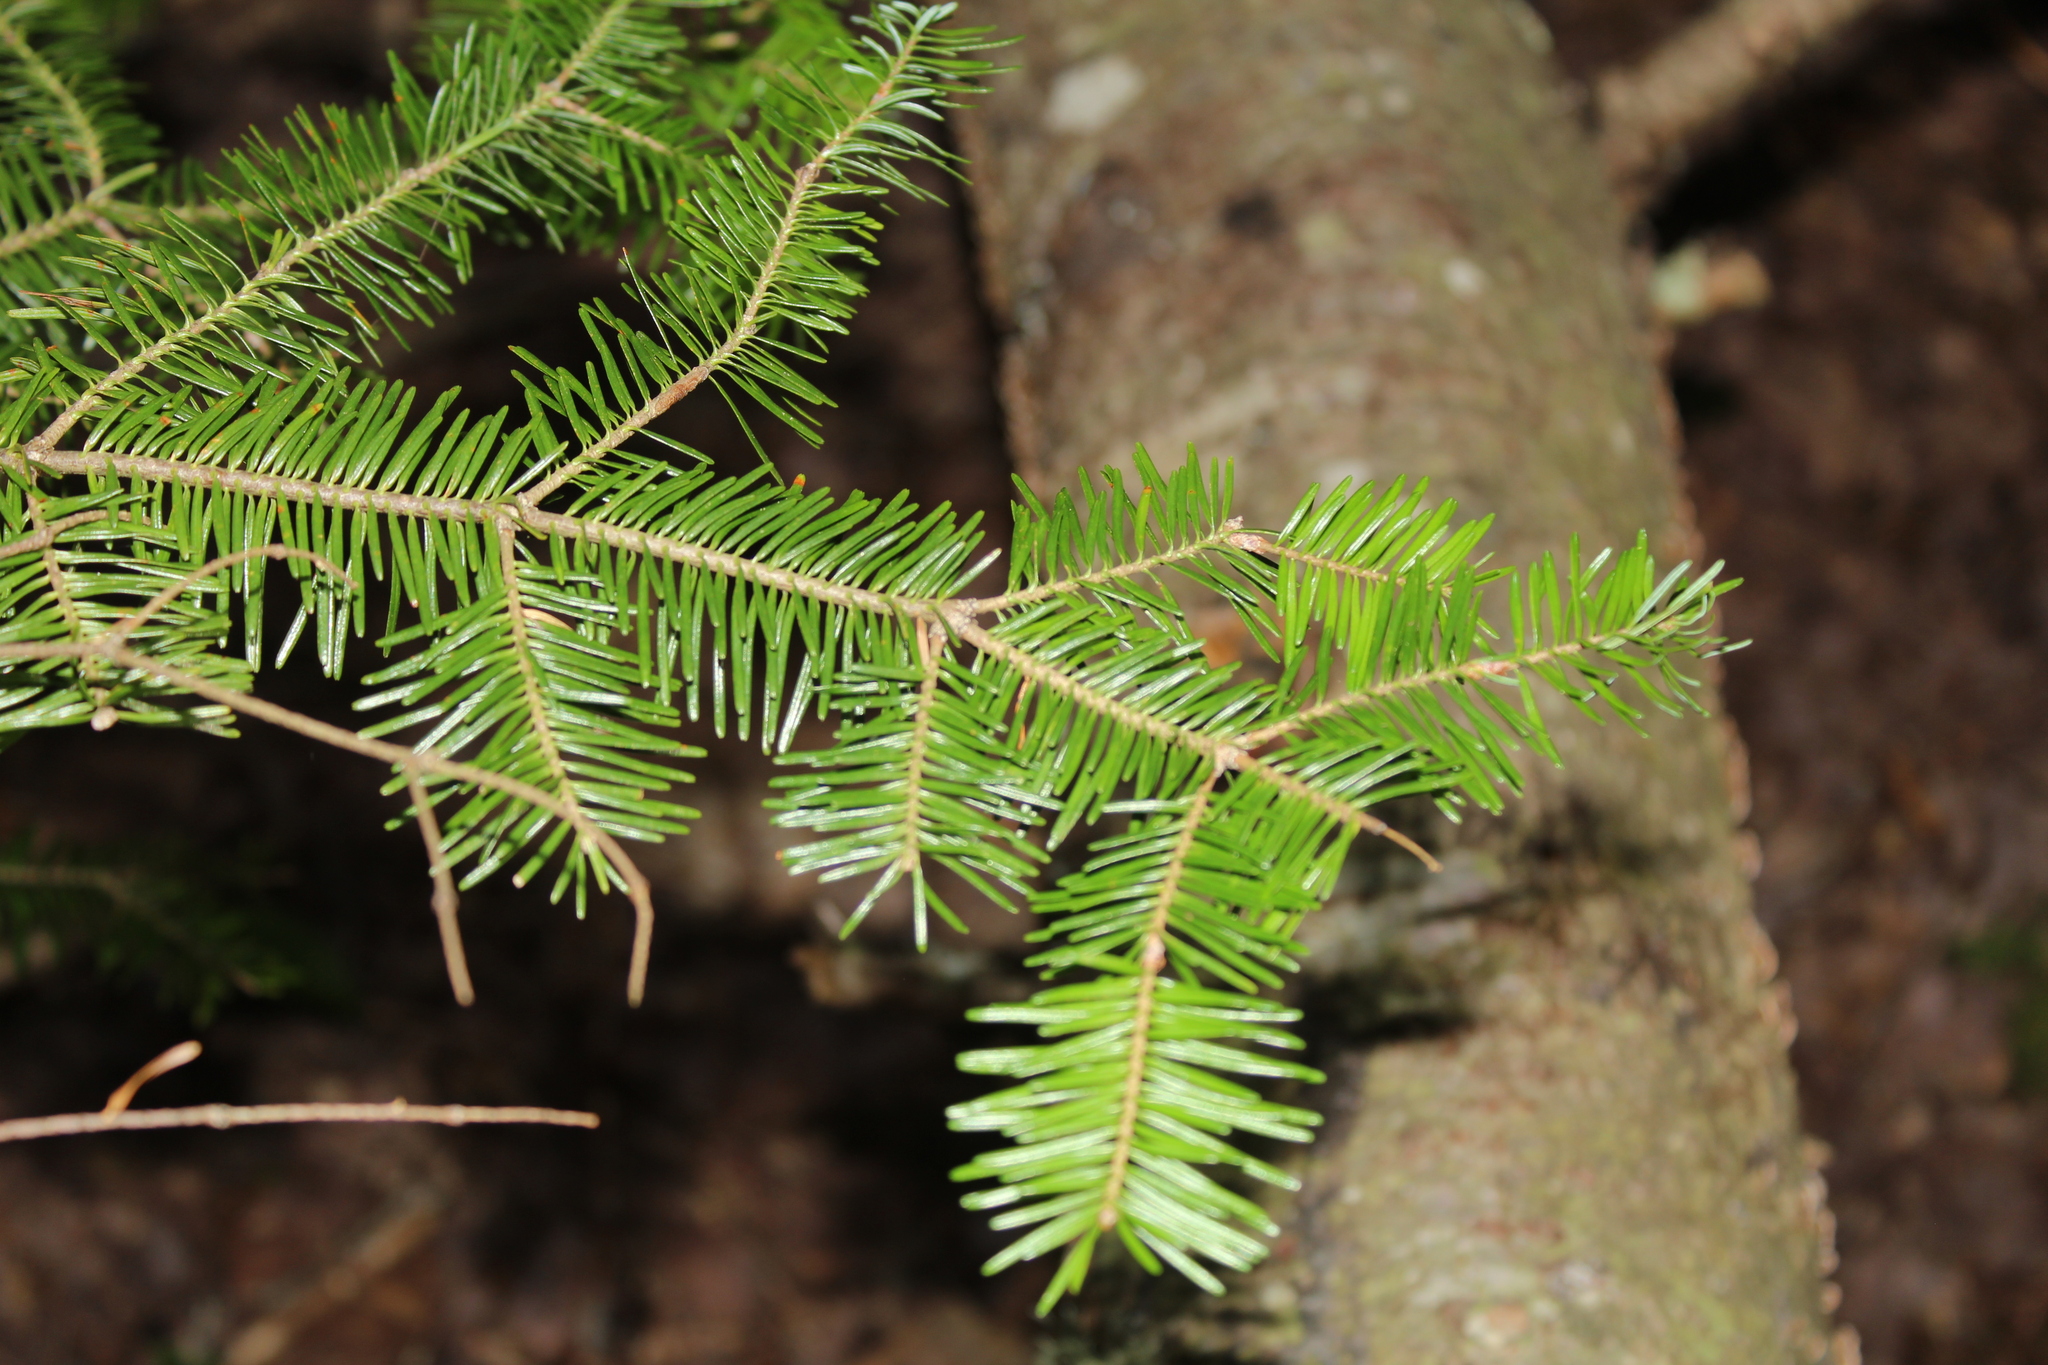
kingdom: Plantae
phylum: Tracheophyta
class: Pinopsida
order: Pinales
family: Pinaceae
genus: Abies
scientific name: Abies balsamea
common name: Balsam fir
